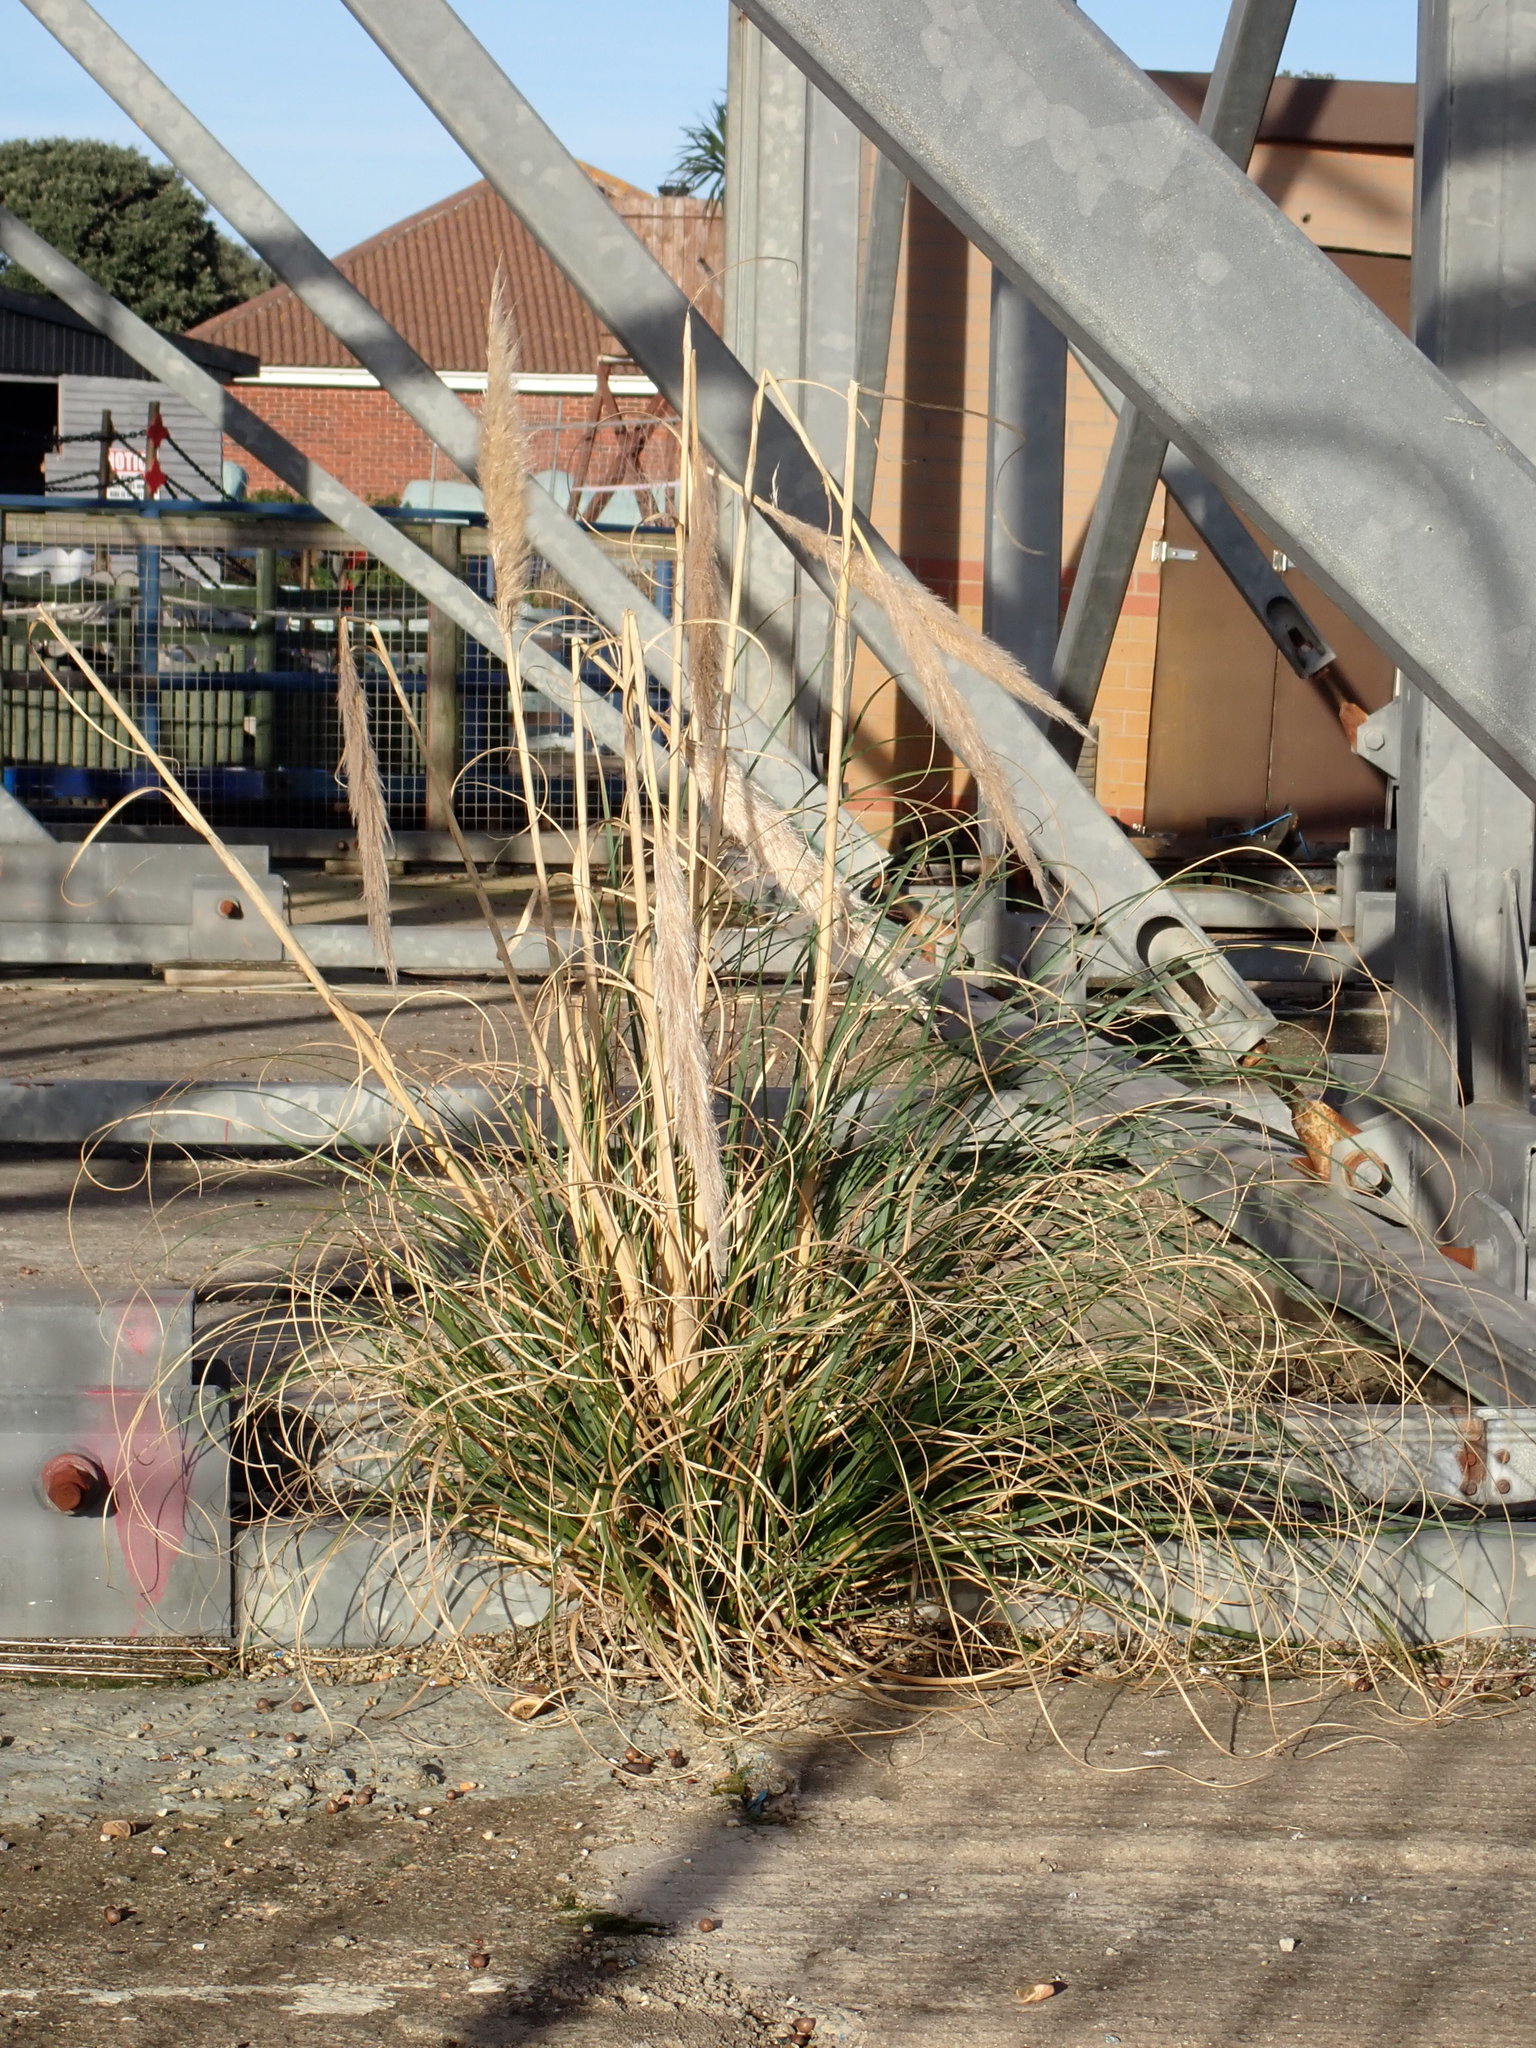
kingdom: Plantae
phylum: Tracheophyta
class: Liliopsida
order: Poales
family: Poaceae
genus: Cortaderia
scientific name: Cortaderia selloana
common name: Uruguayan pampas grass
